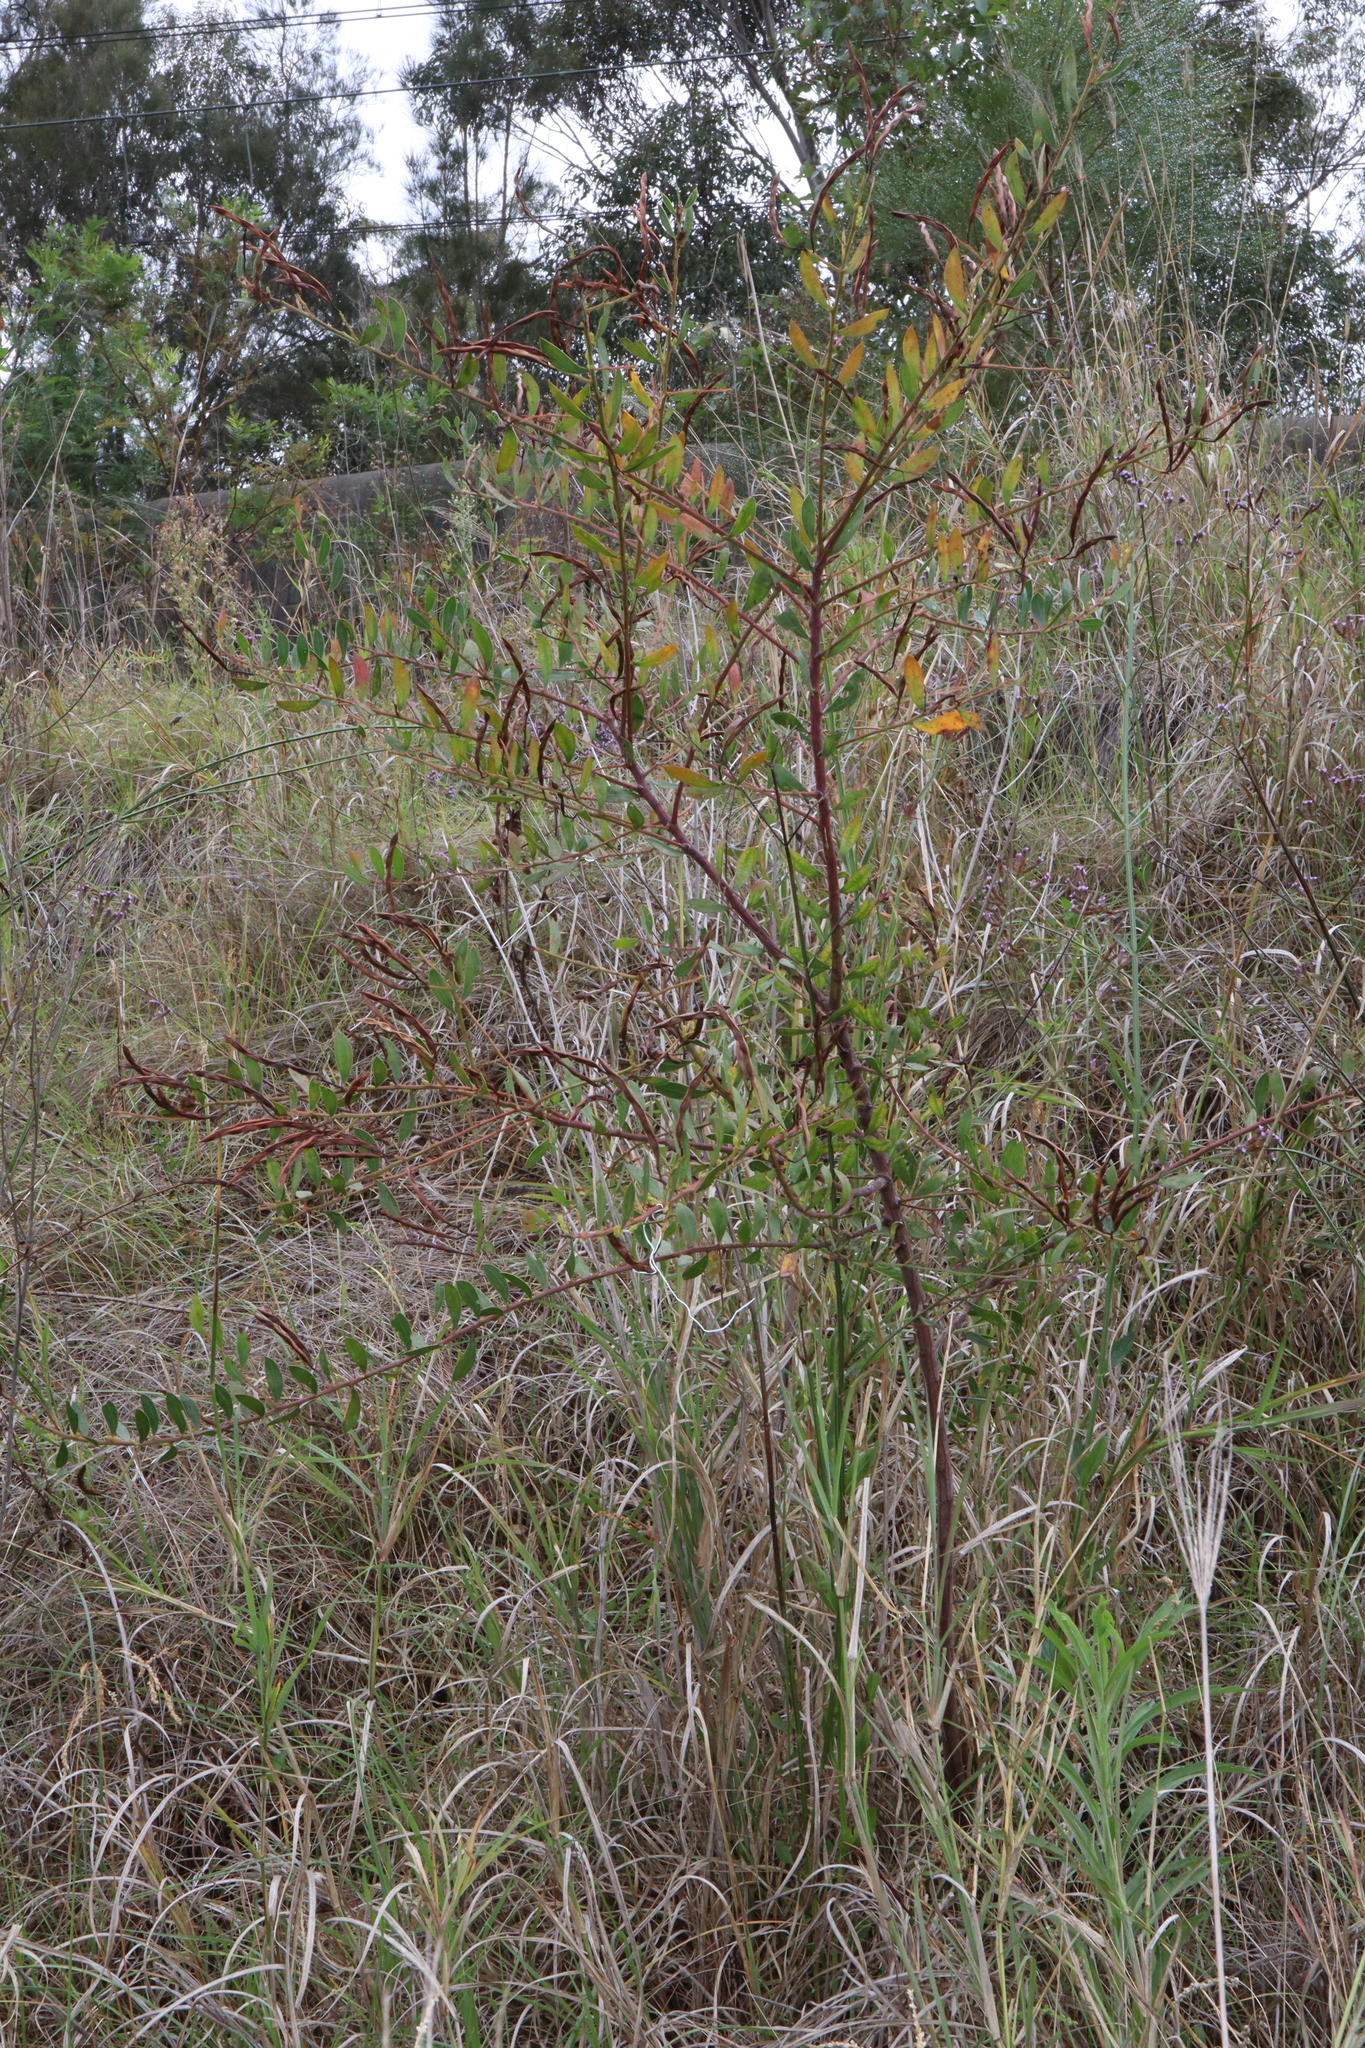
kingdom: Plantae
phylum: Tracheophyta
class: Magnoliopsida
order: Fabales
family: Fabaceae
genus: Acacia
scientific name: Acacia myrtifolia
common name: Myrtle wattle
